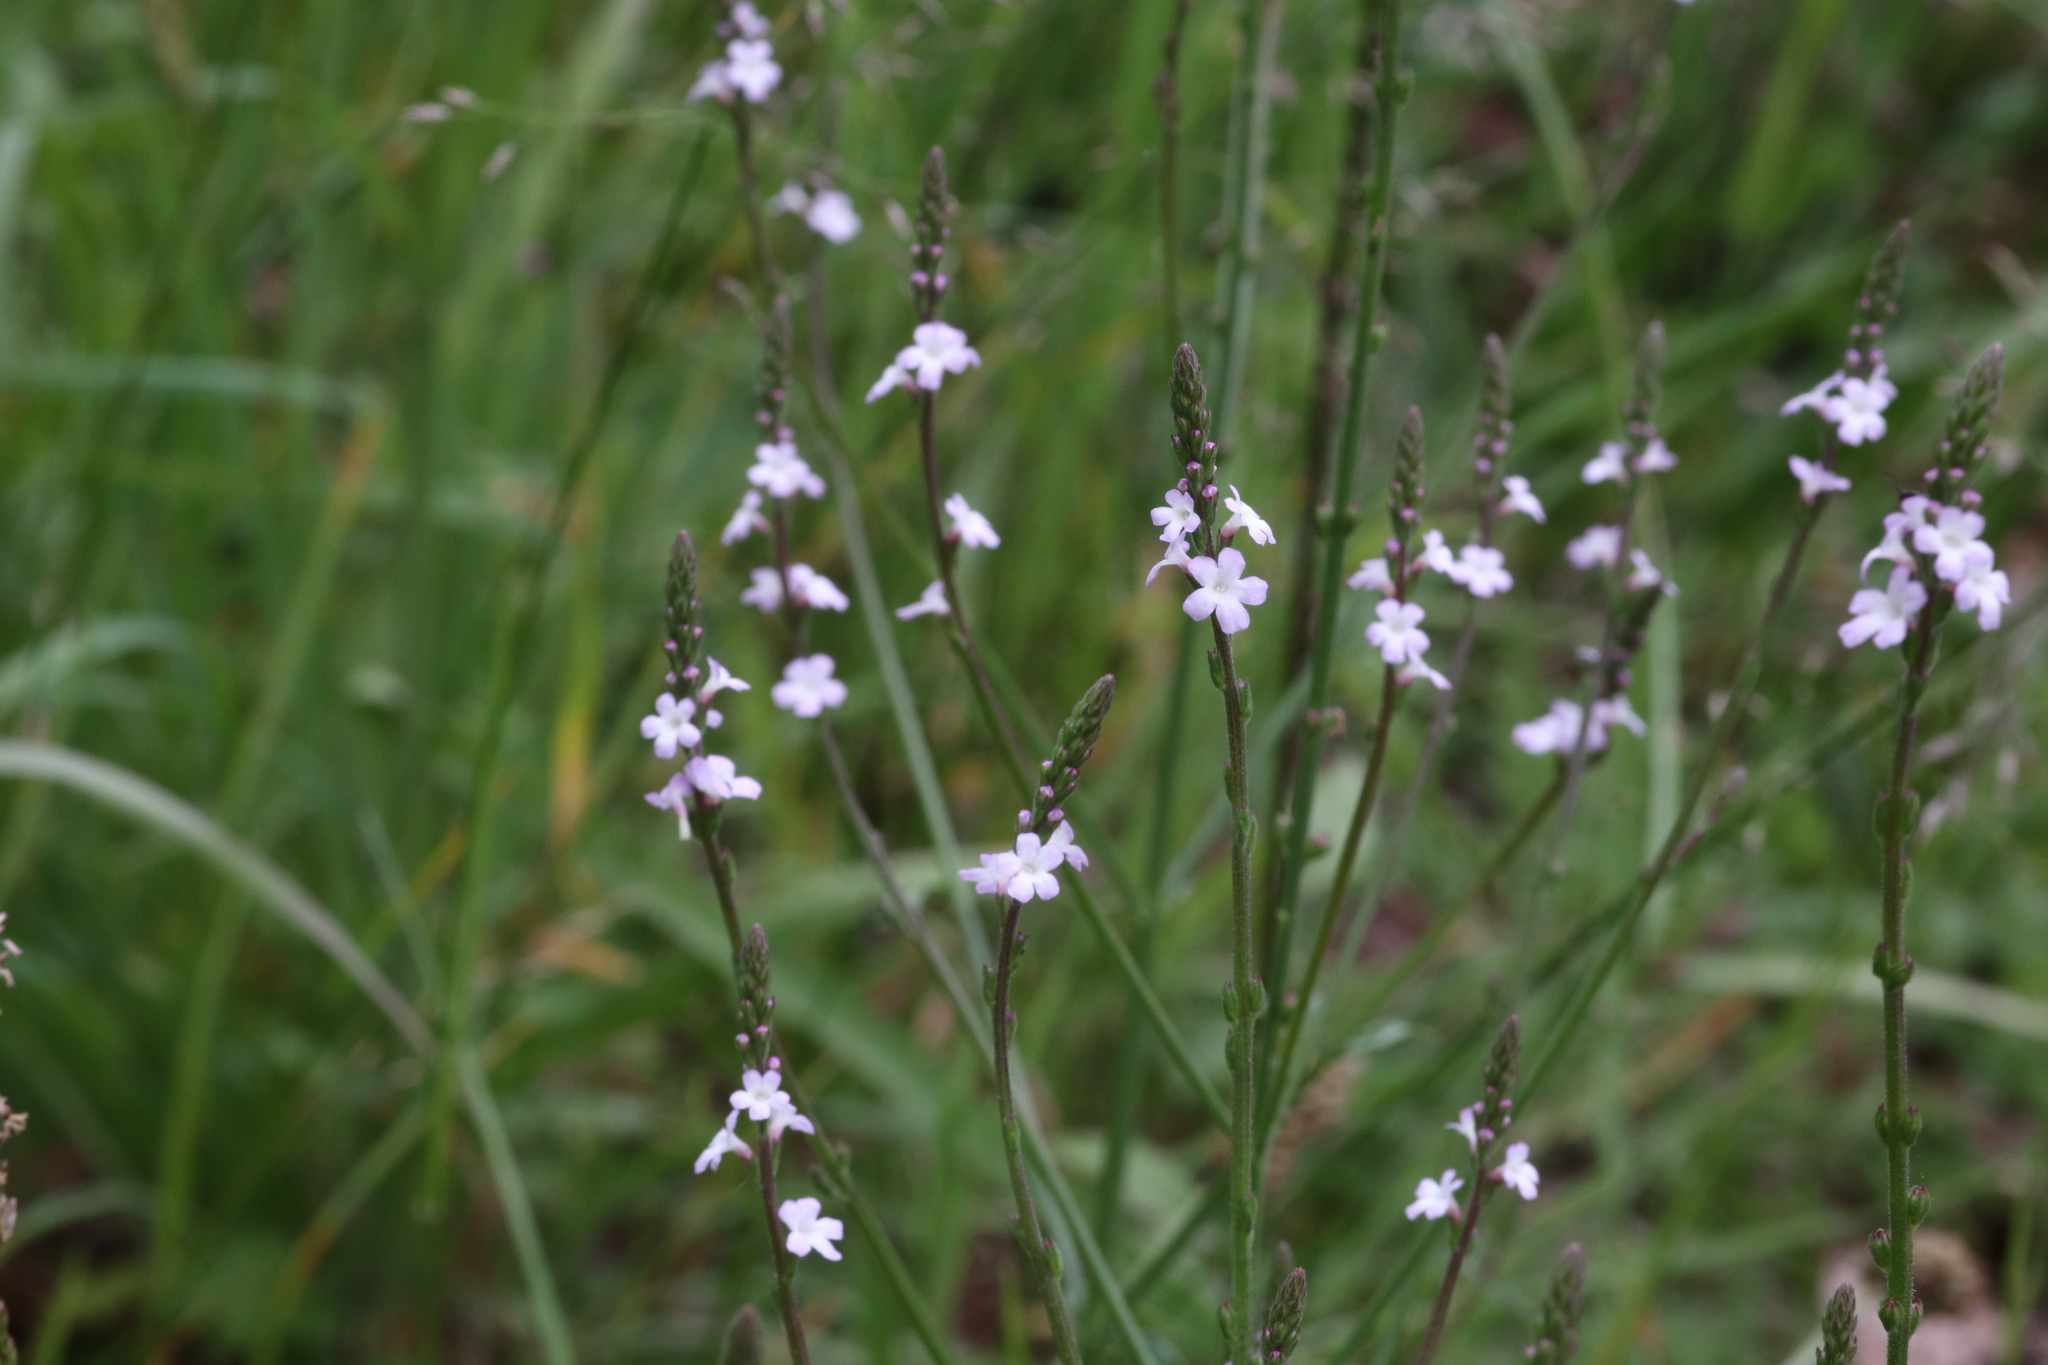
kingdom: Plantae
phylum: Tracheophyta
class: Magnoliopsida
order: Lamiales
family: Verbenaceae
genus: Verbena
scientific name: Verbena officinalis
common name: Vervain
